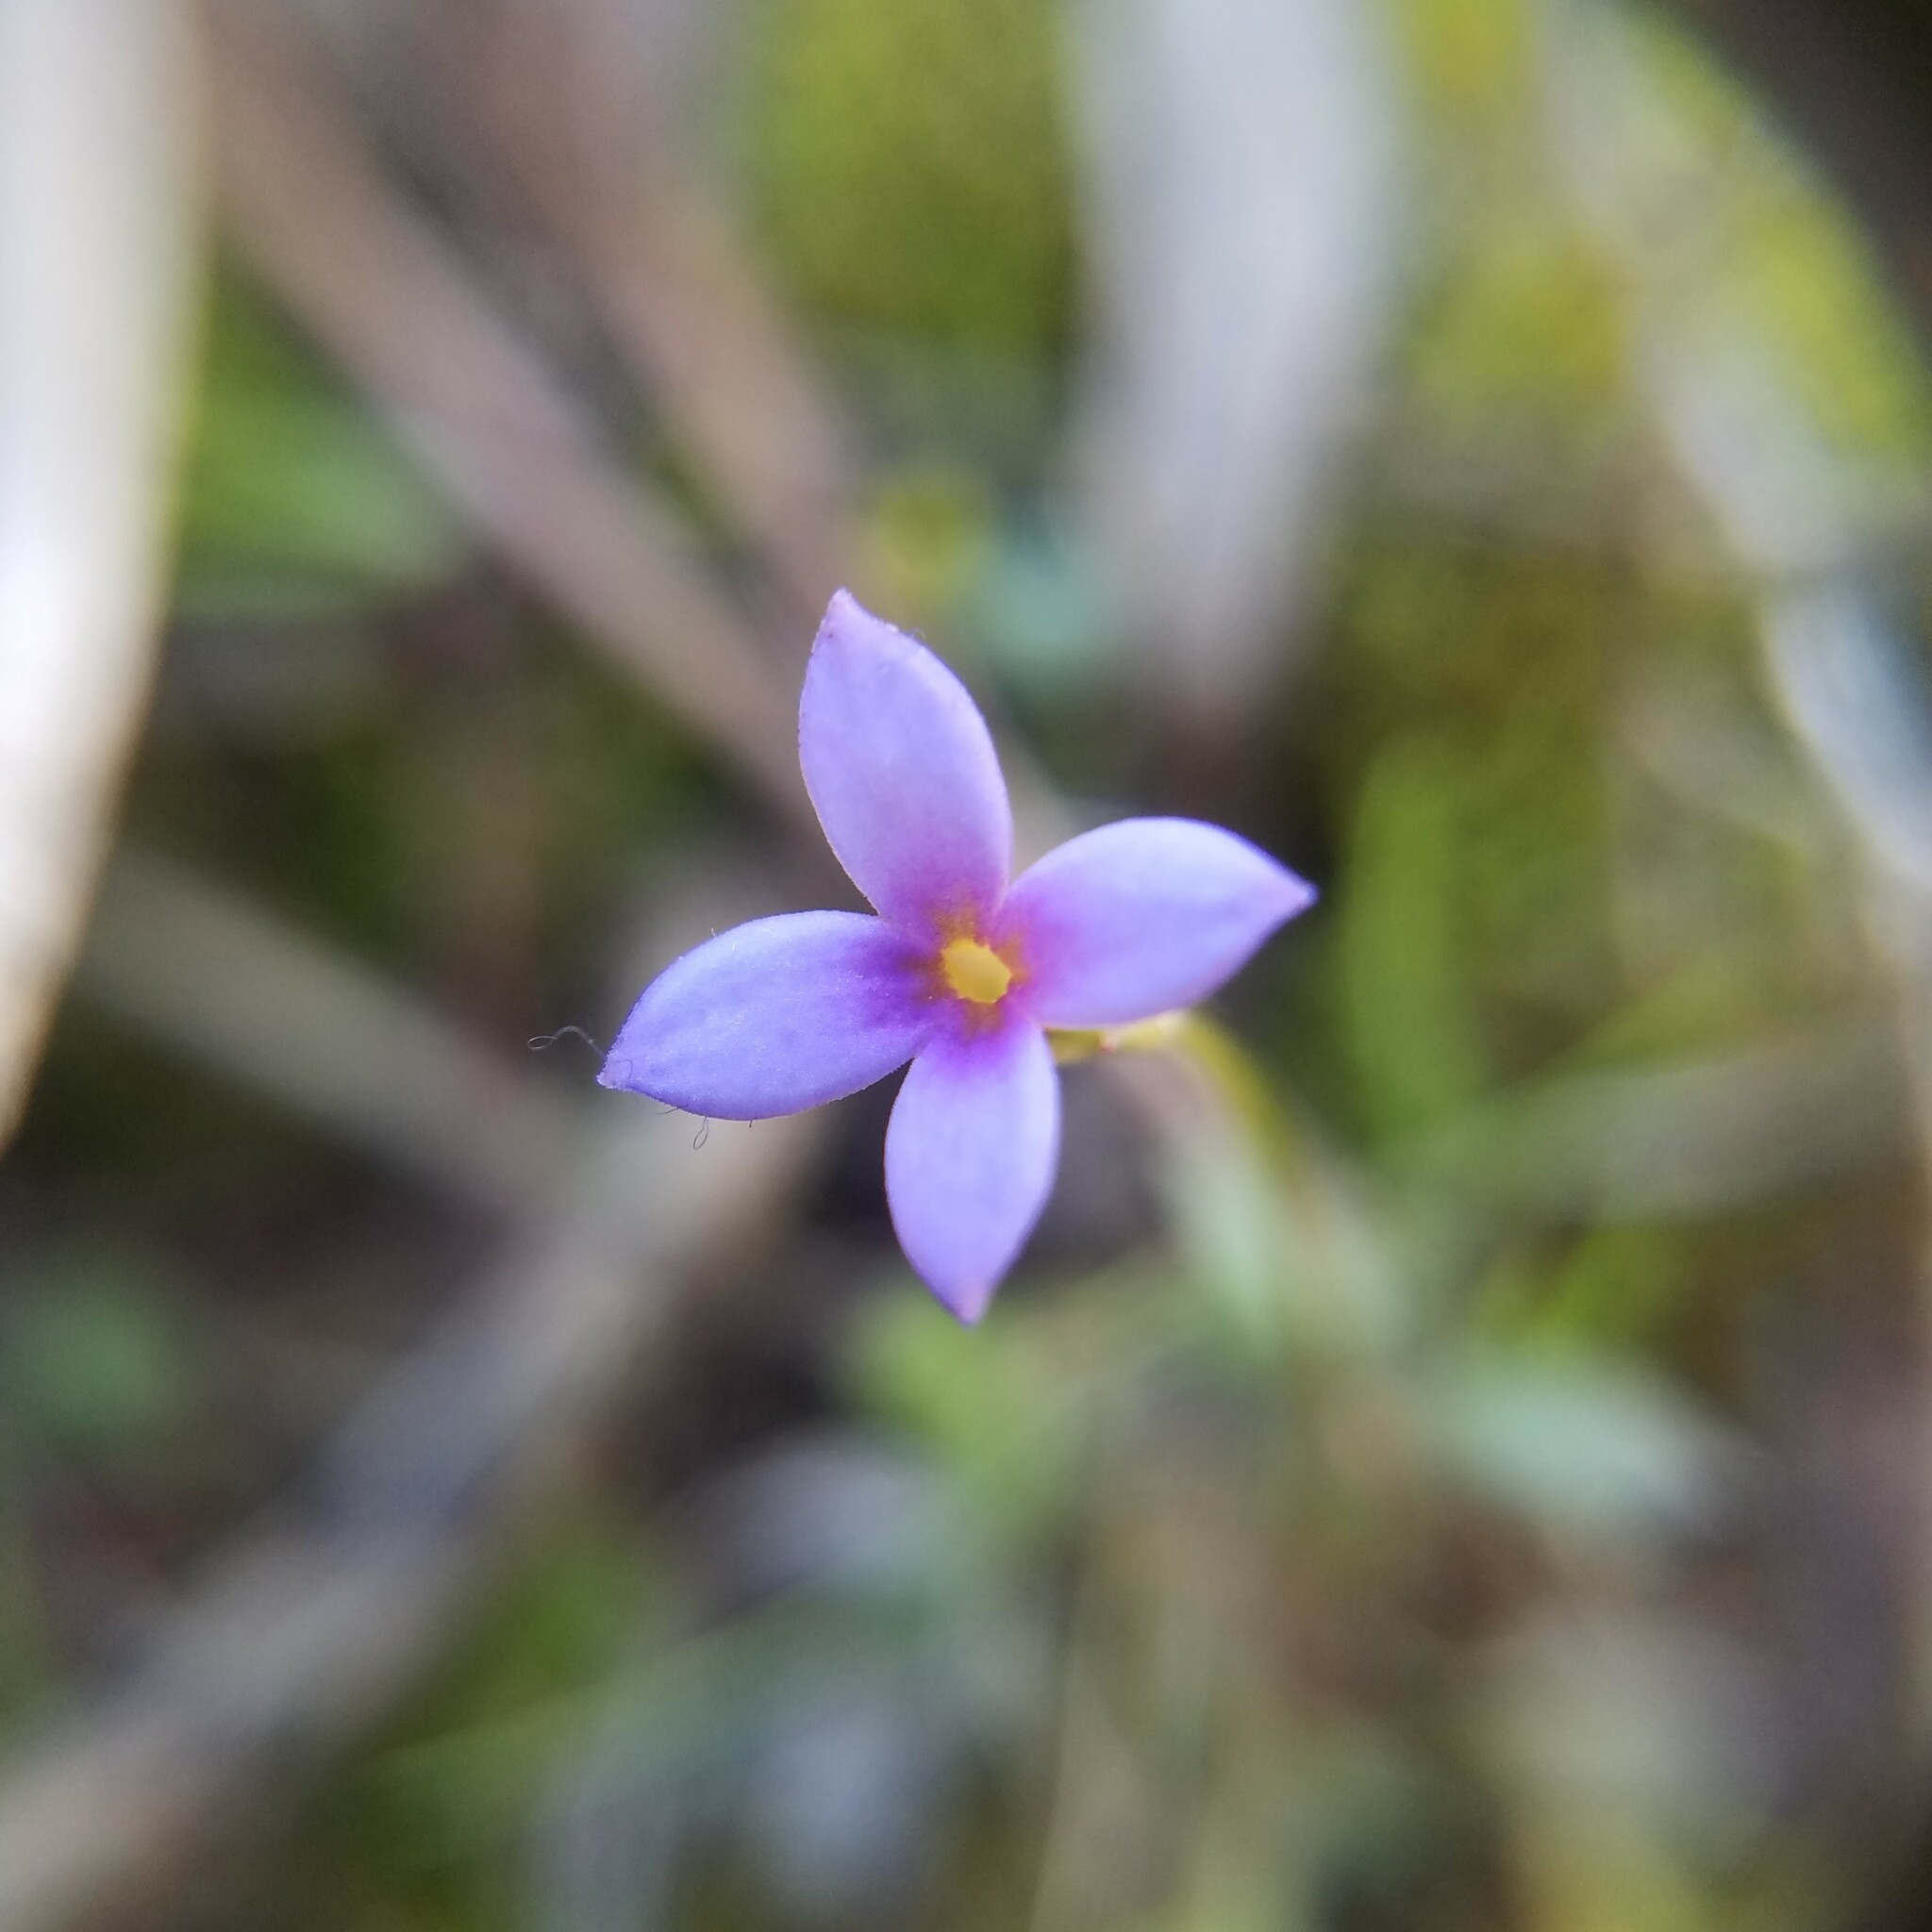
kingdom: Plantae
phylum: Tracheophyta
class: Magnoliopsida
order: Gentianales
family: Rubiaceae
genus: Houstonia
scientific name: Houstonia pusilla
